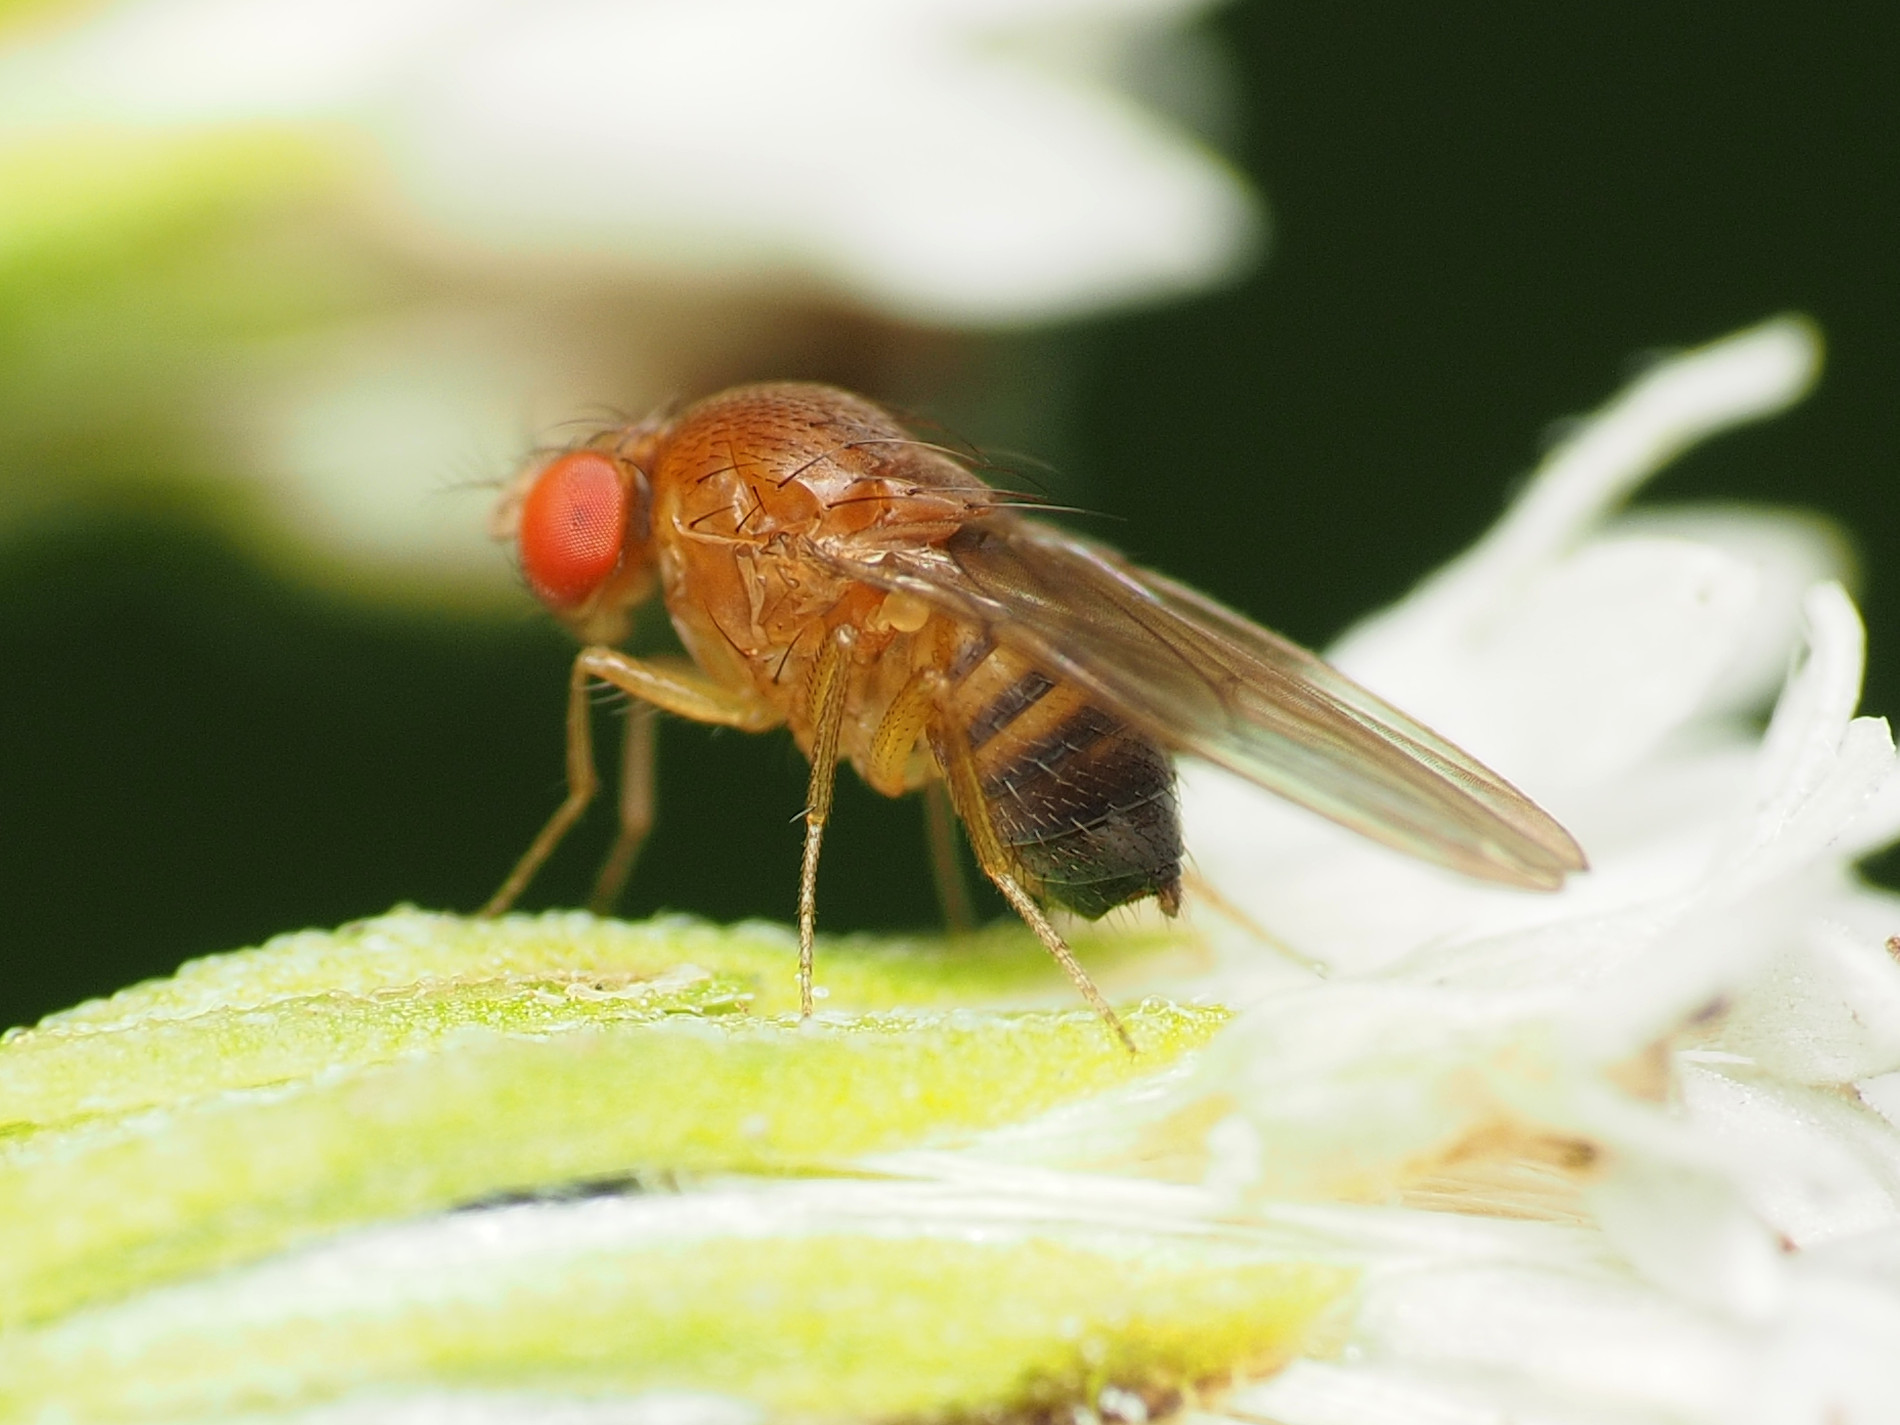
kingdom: Animalia
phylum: Arthropoda
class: Insecta
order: Diptera
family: Drosophilidae
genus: Drosophila
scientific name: Drosophila suzukii
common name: Spotted-wing drosophila
